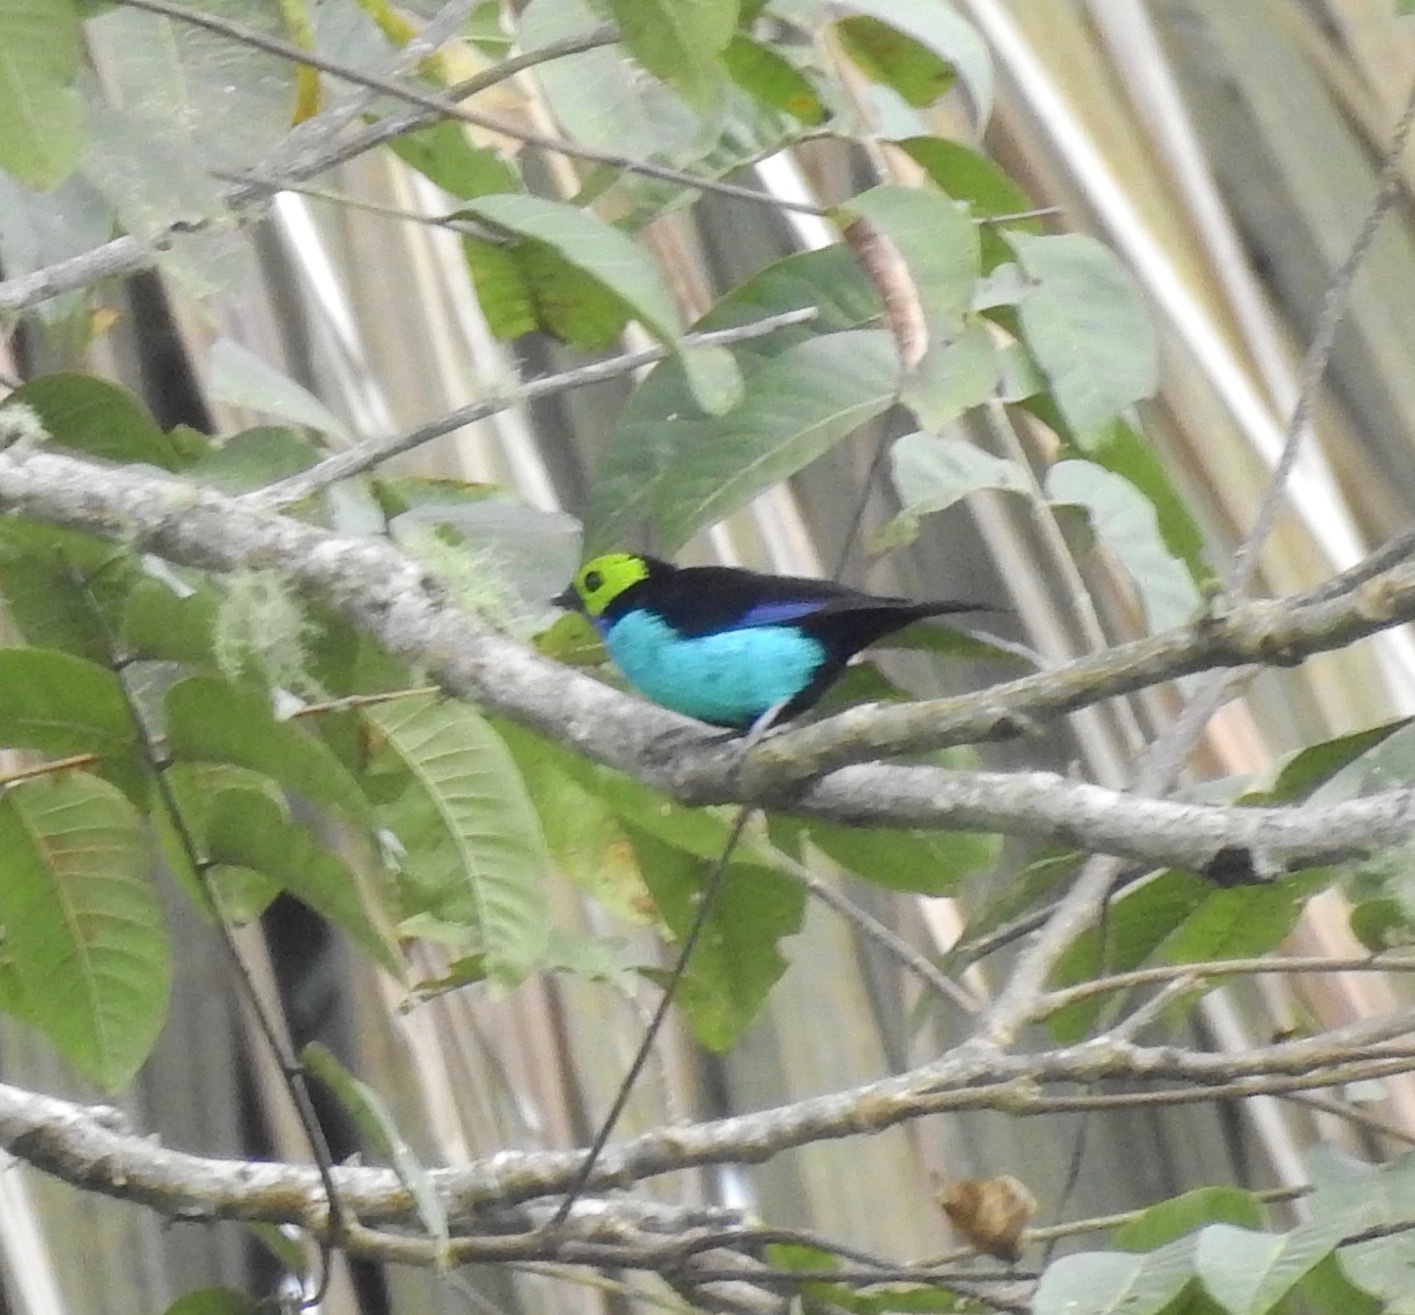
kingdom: Animalia
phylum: Chordata
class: Aves
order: Passeriformes
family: Thraupidae
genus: Tangara
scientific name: Tangara chilensis
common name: Paradise tanager
